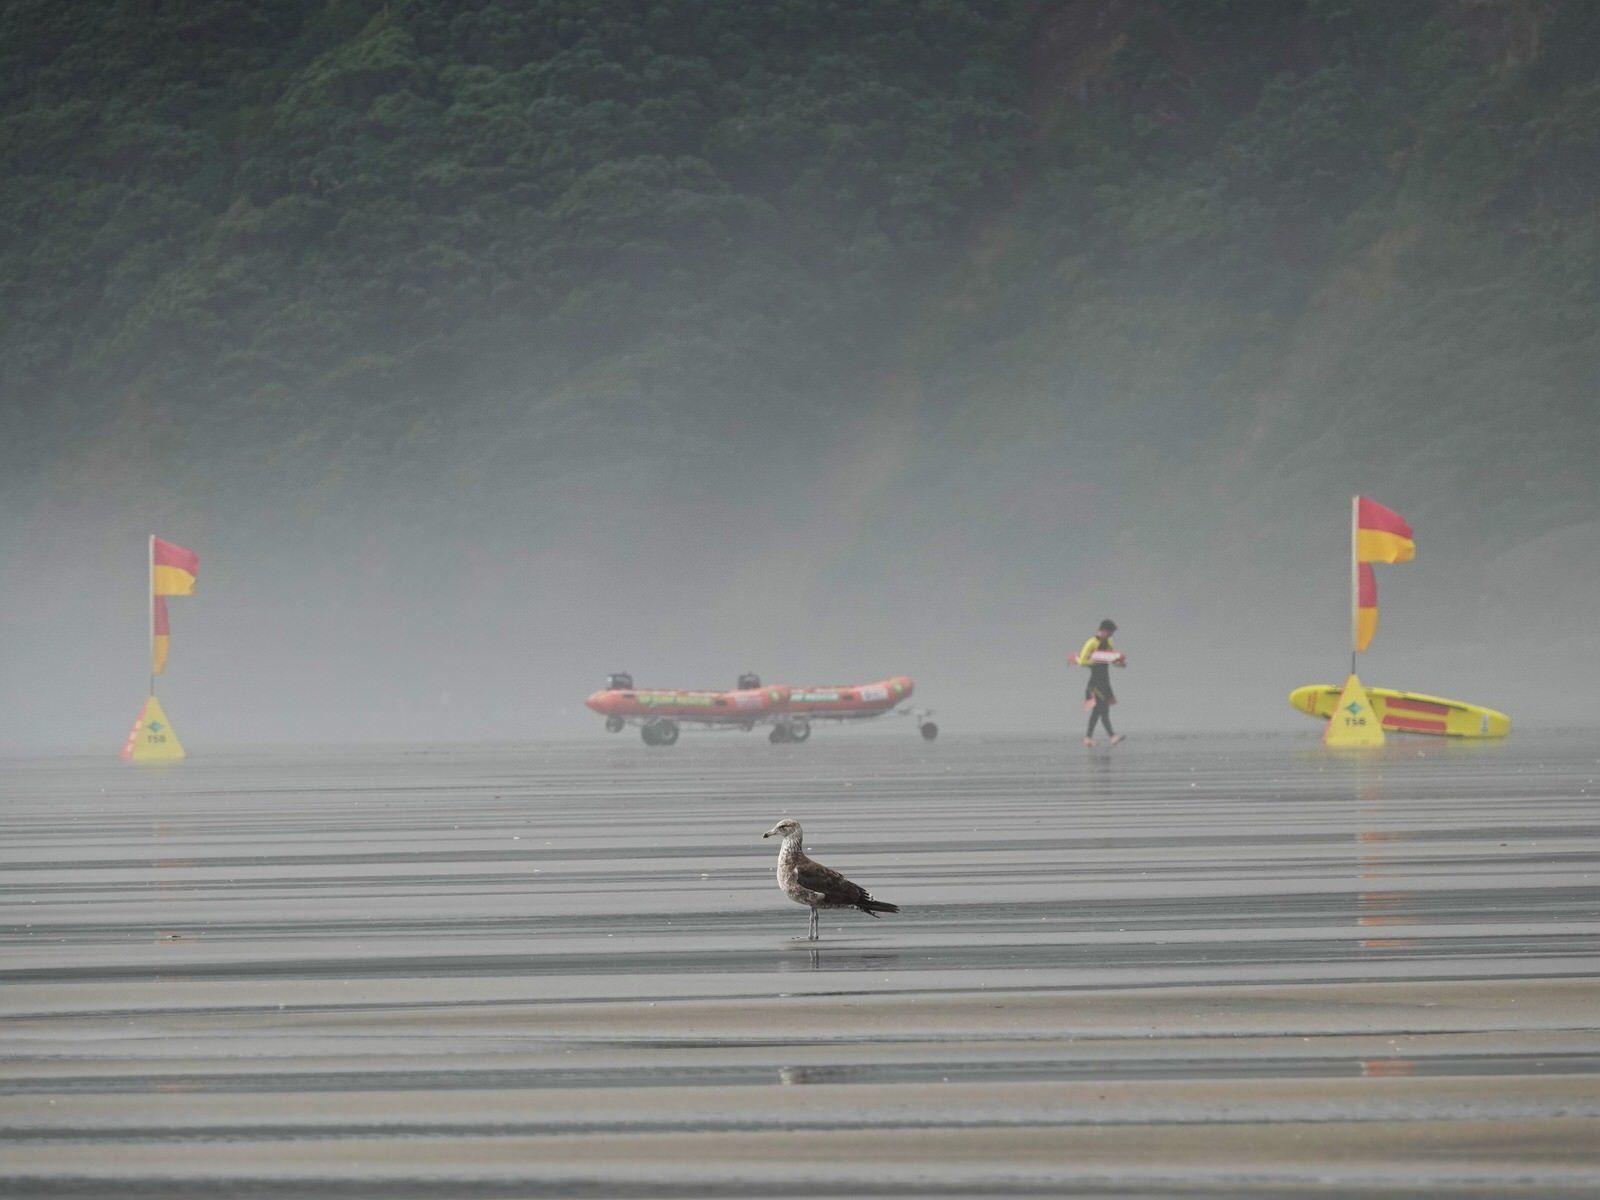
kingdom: Animalia
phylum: Chordata
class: Aves
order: Charadriiformes
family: Laridae
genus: Larus
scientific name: Larus dominicanus
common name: Kelp gull
